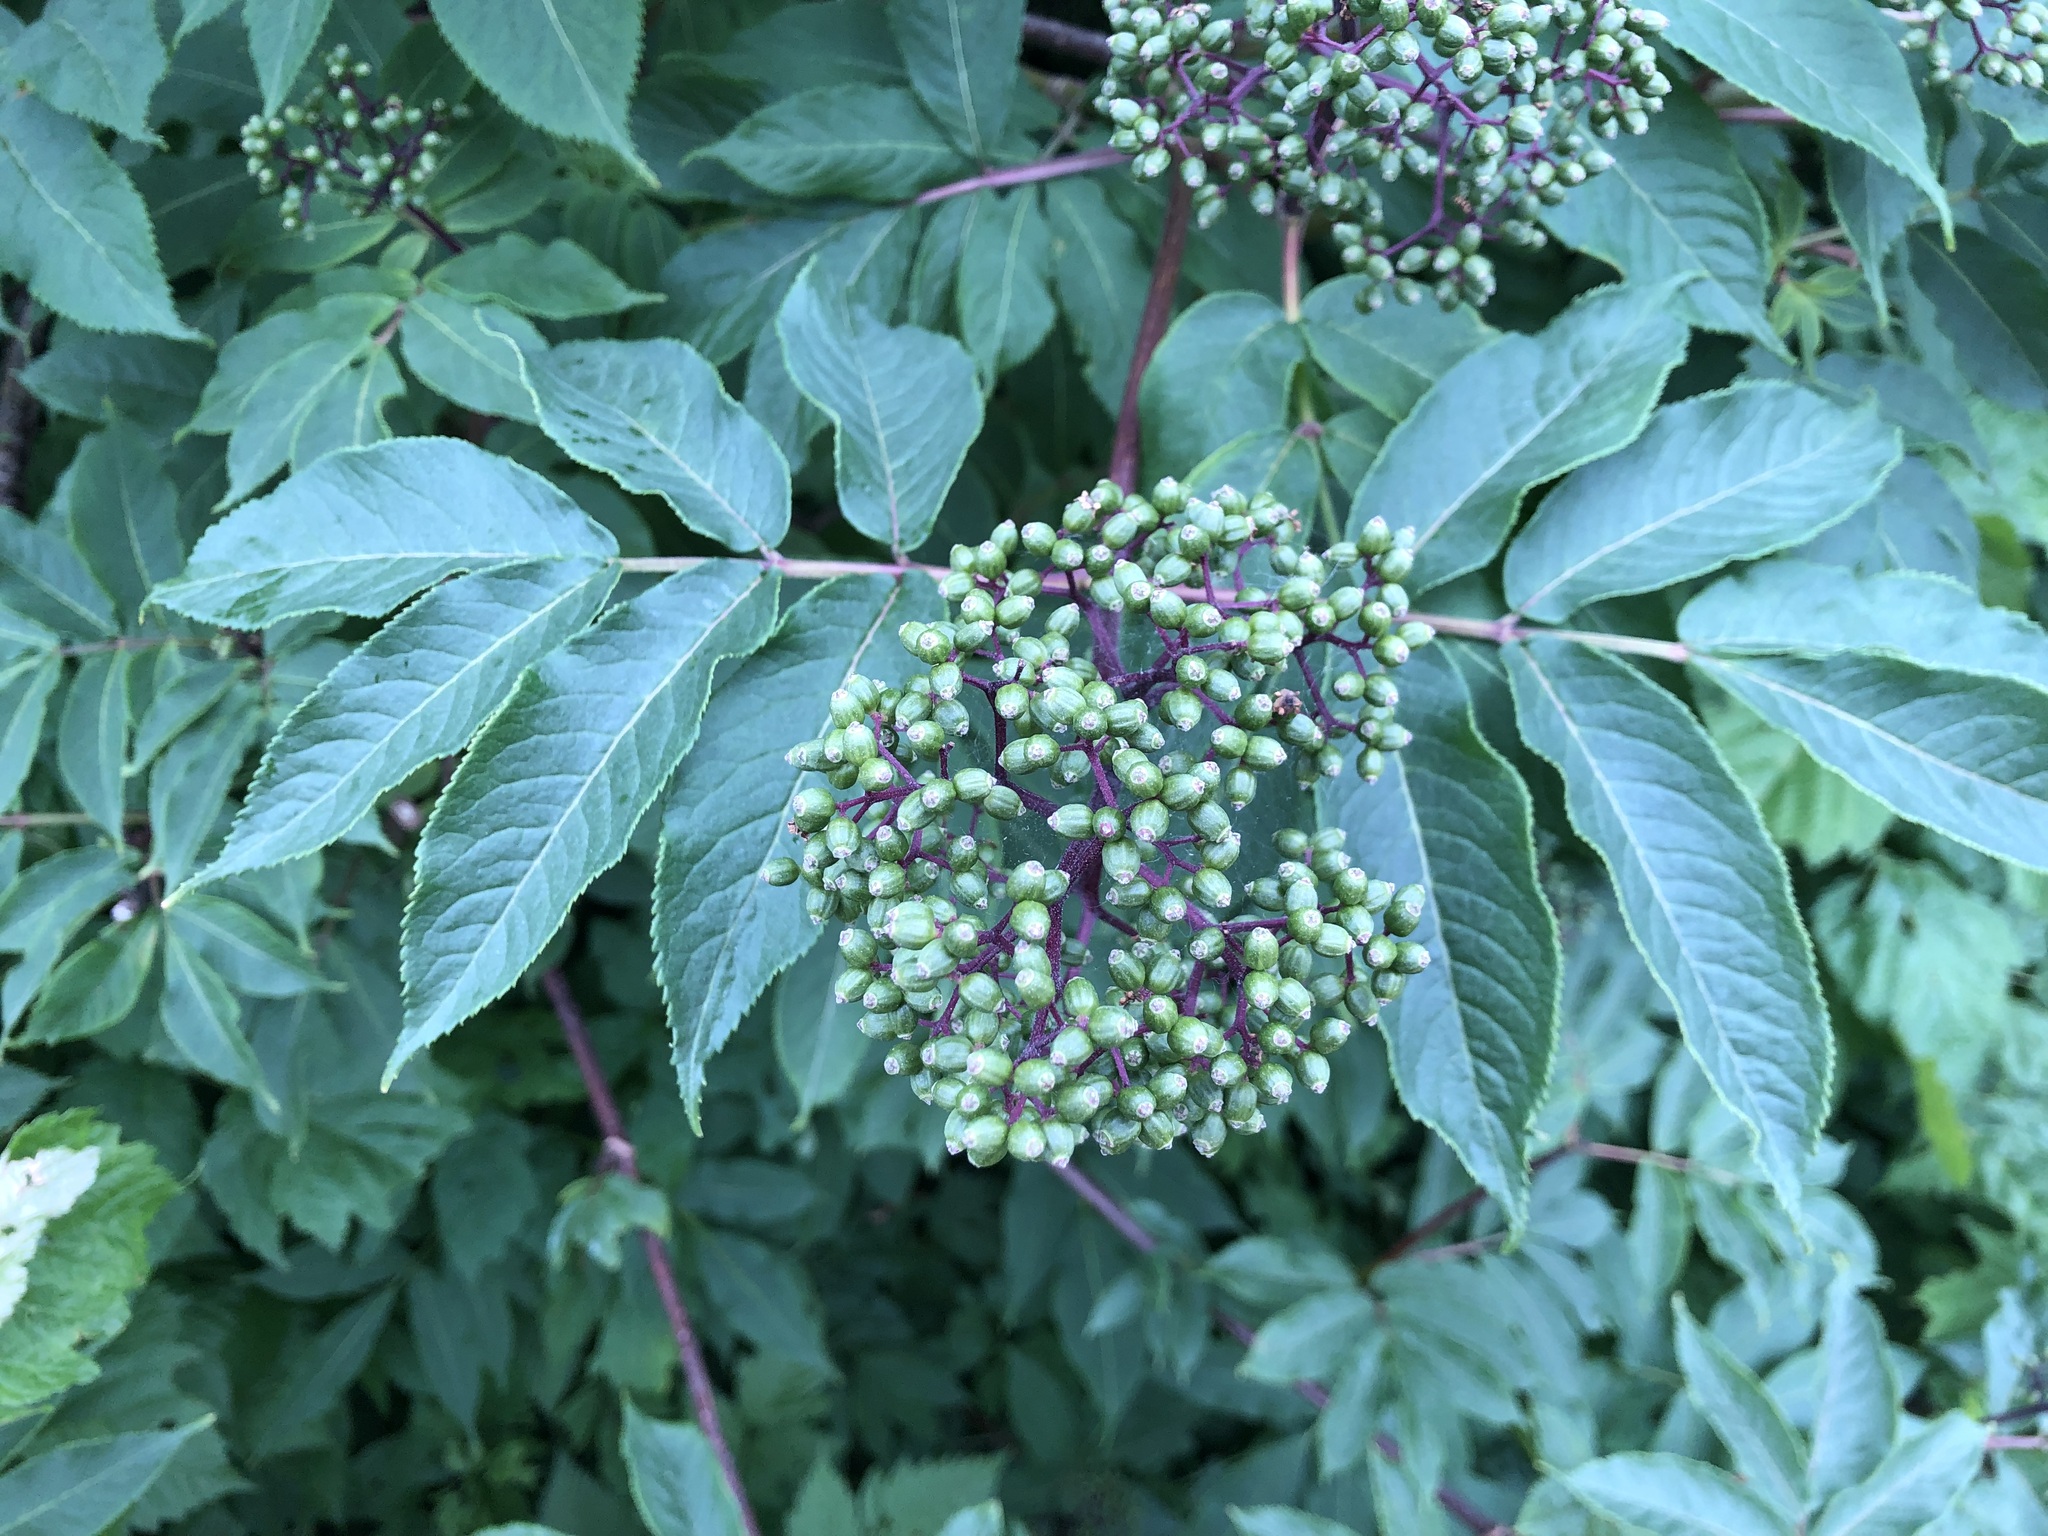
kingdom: Plantae
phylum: Tracheophyta
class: Magnoliopsida
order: Dipsacales
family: Viburnaceae
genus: Sambucus
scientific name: Sambucus racemosa
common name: Red-berried elder
